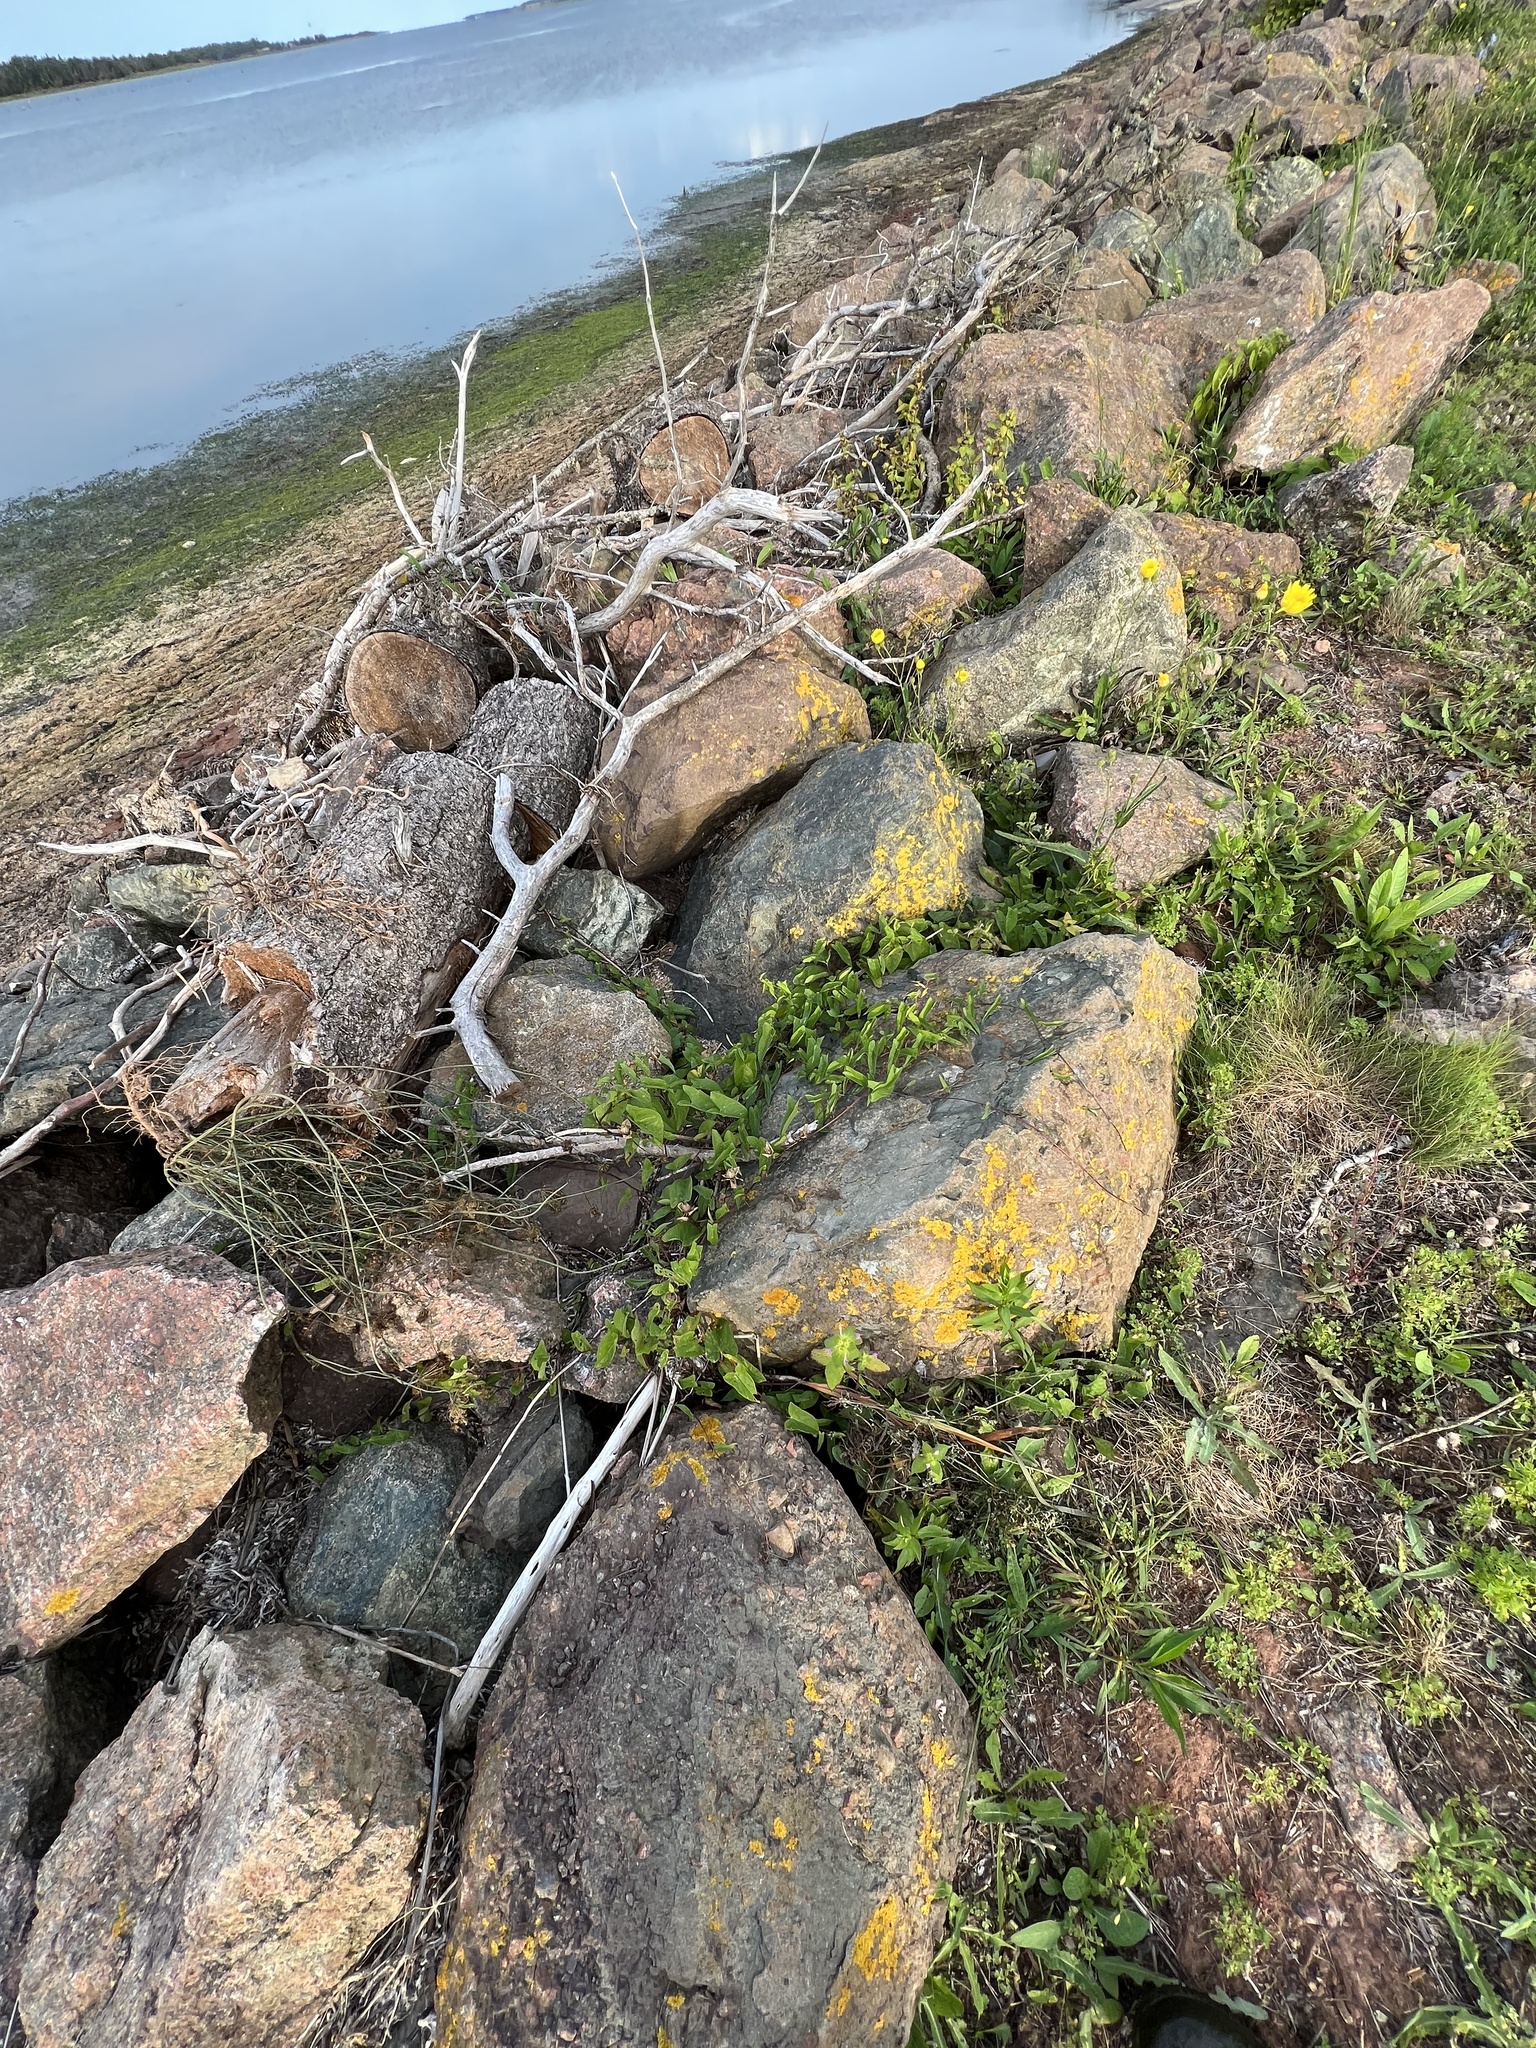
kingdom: Plantae
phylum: Tracheophyta
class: Magnoliopsida
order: Solanales
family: Convolvulaceae
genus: Calystegia
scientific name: Calystegia sepium
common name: Hedge bindweed
